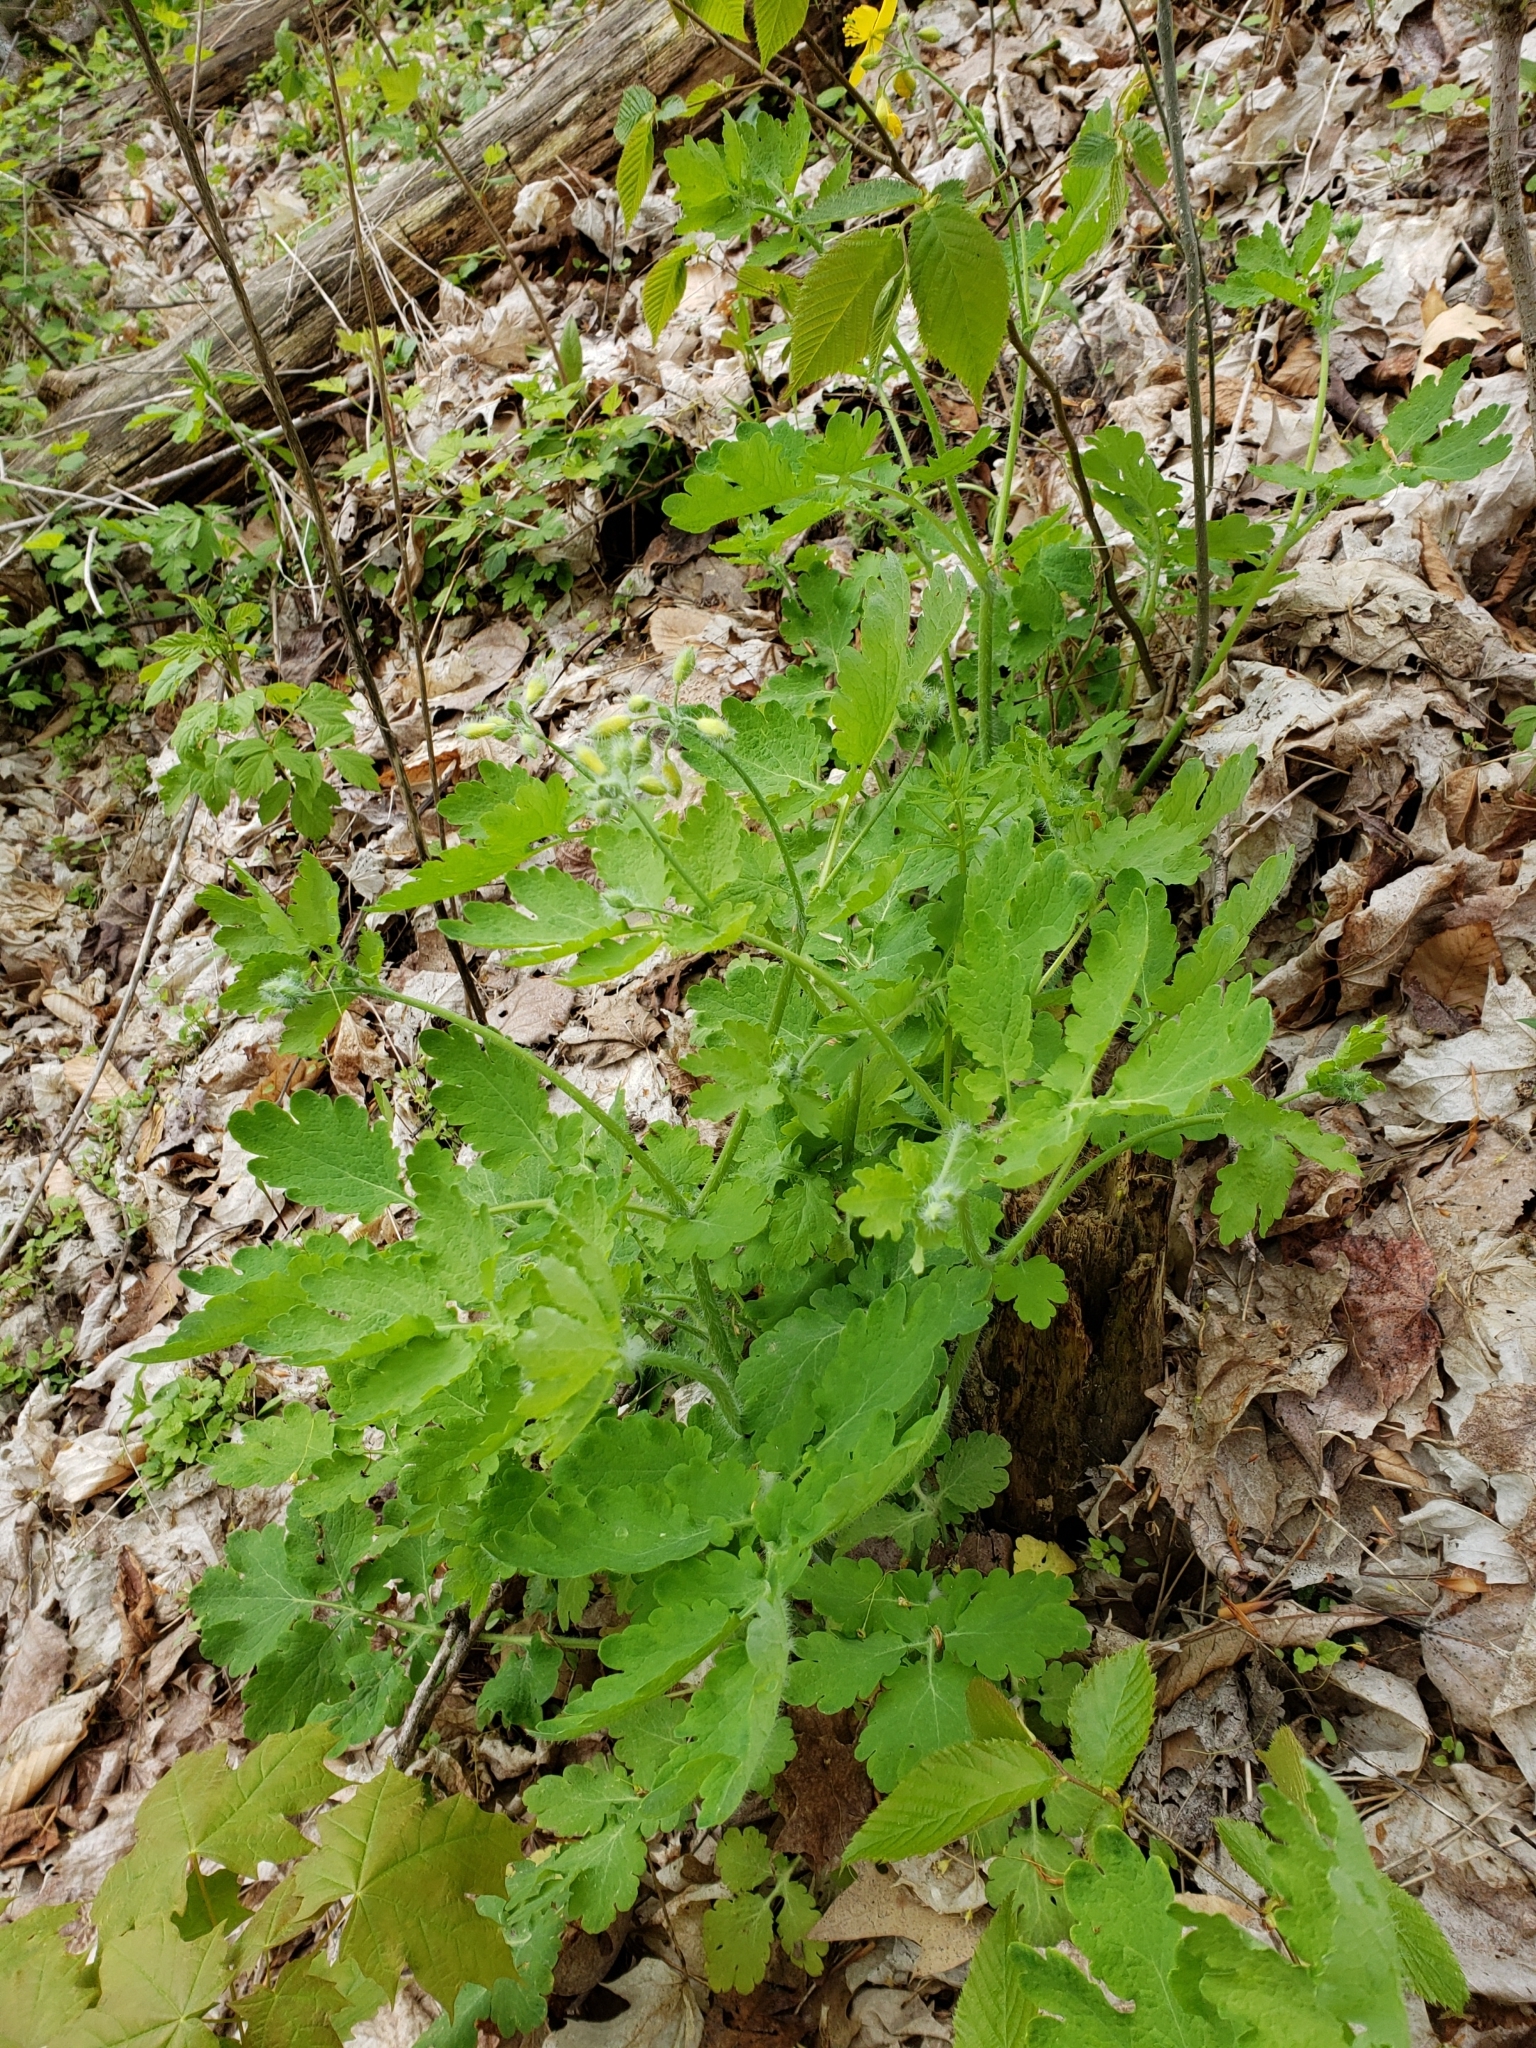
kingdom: Plantae
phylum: Tracheophyta
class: Magnoliopsida
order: Ranunculales
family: Papaveraceae
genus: Chelidonium
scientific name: Chelidonium majus
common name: Greater celandine
